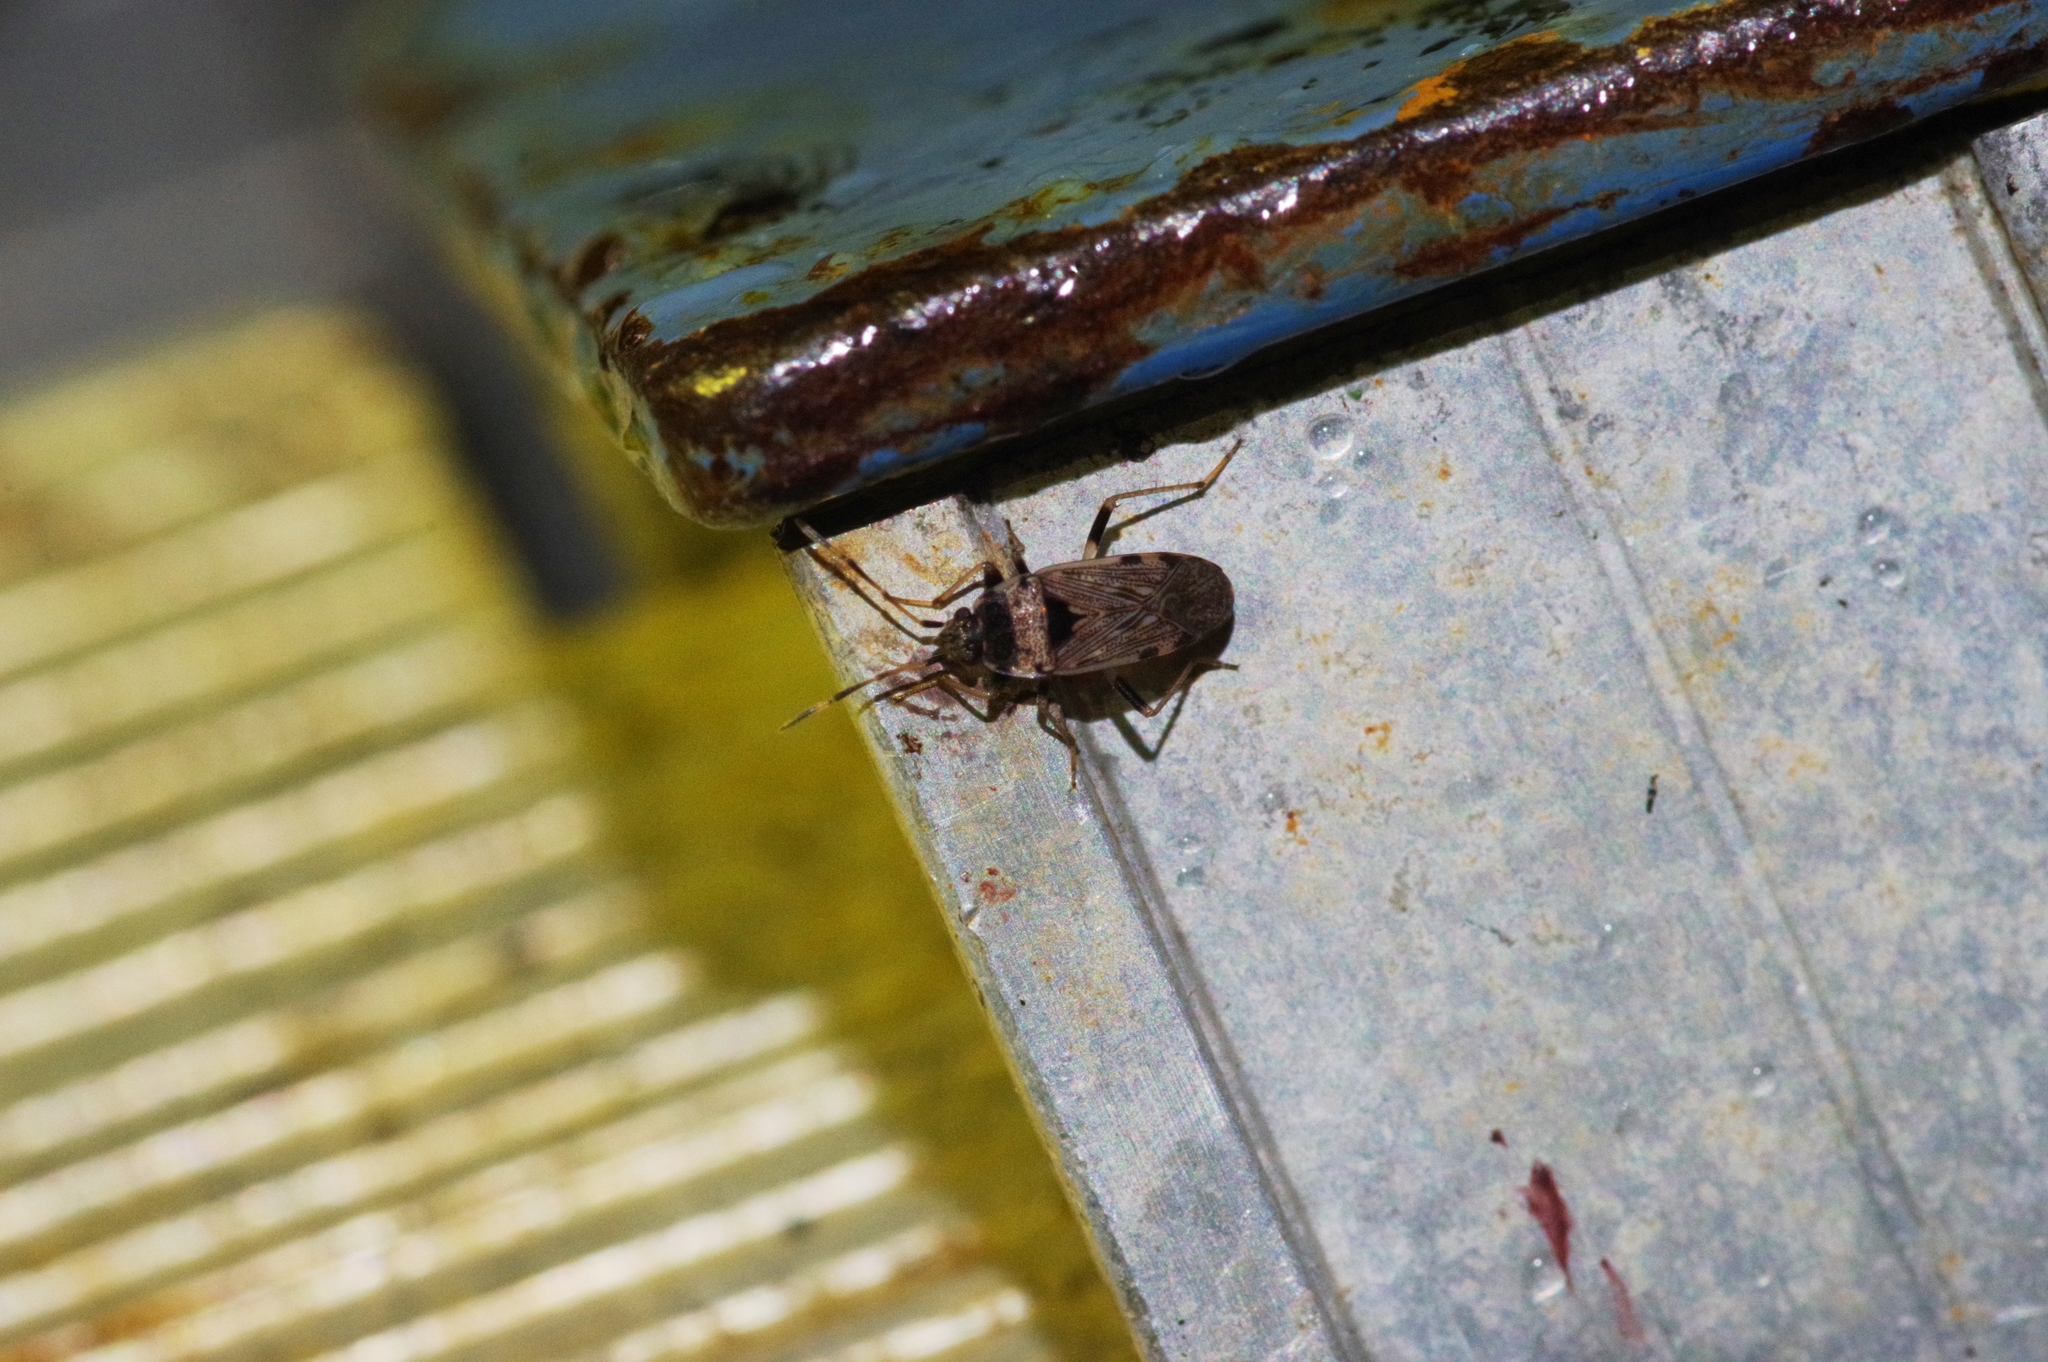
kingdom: Animalia
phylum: Arthropoda
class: Insecta
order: Hemiptera
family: Rhyparochromidae
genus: Elasmolomus
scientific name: Elasmolomus v-album
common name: Seed bug
